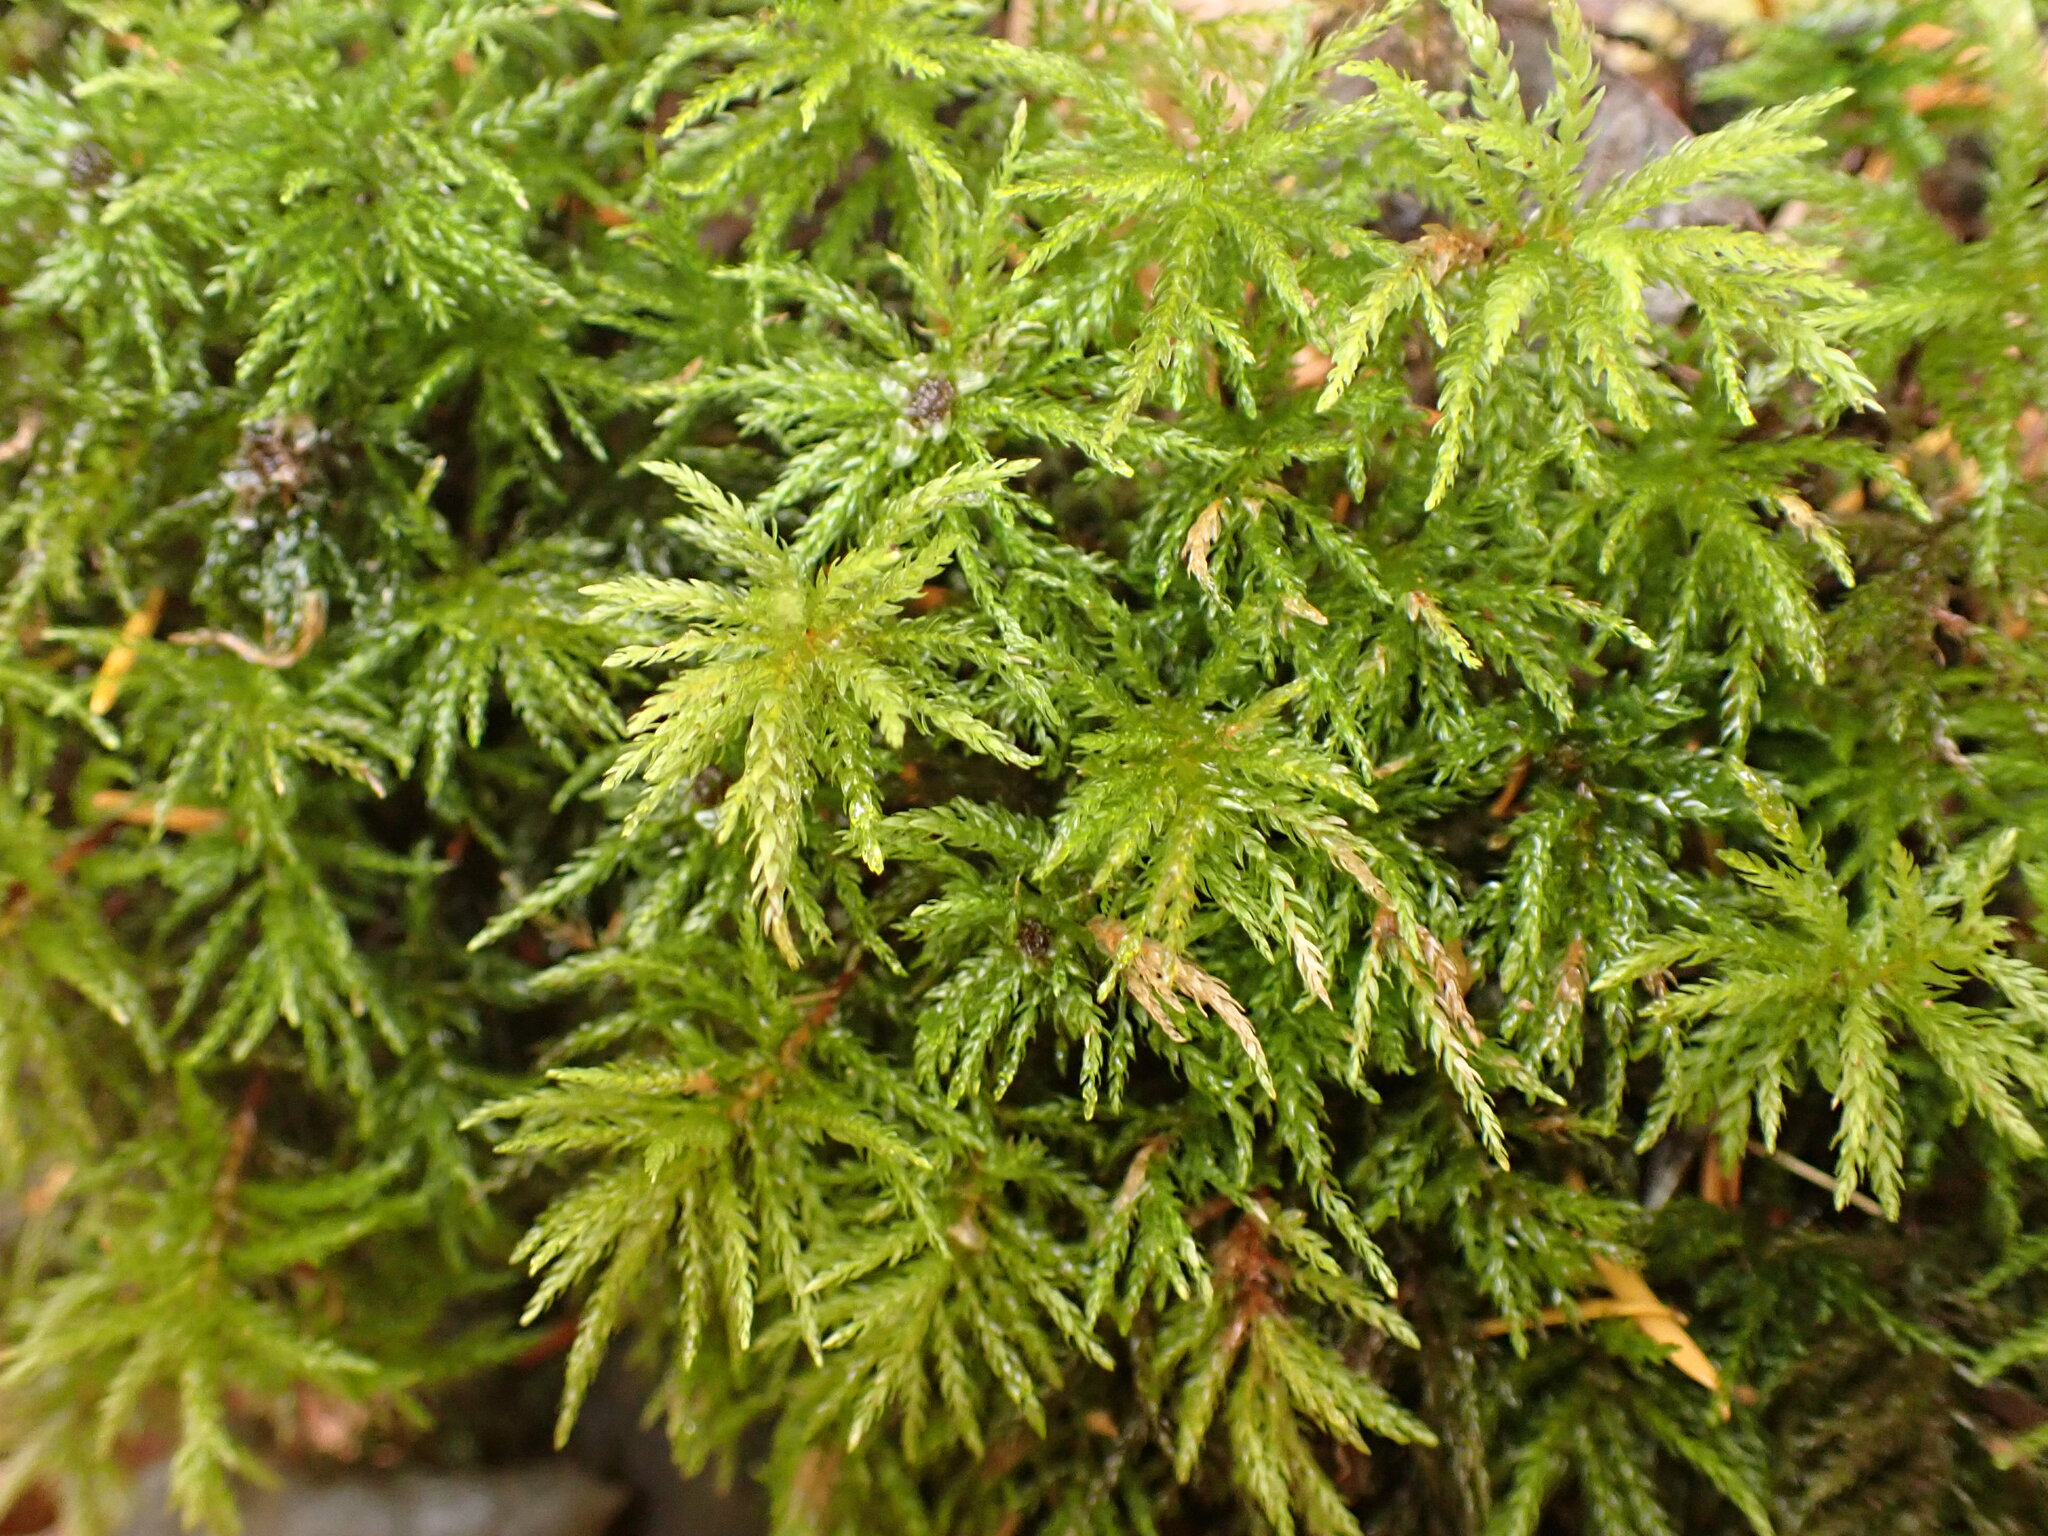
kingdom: Plantae
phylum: Bryophyta
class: Bryopsida
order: Bryales
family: Mniaceae
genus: Leucolepis
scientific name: Leucolepis acanthoneura
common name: Leucolepis umbrella moss
